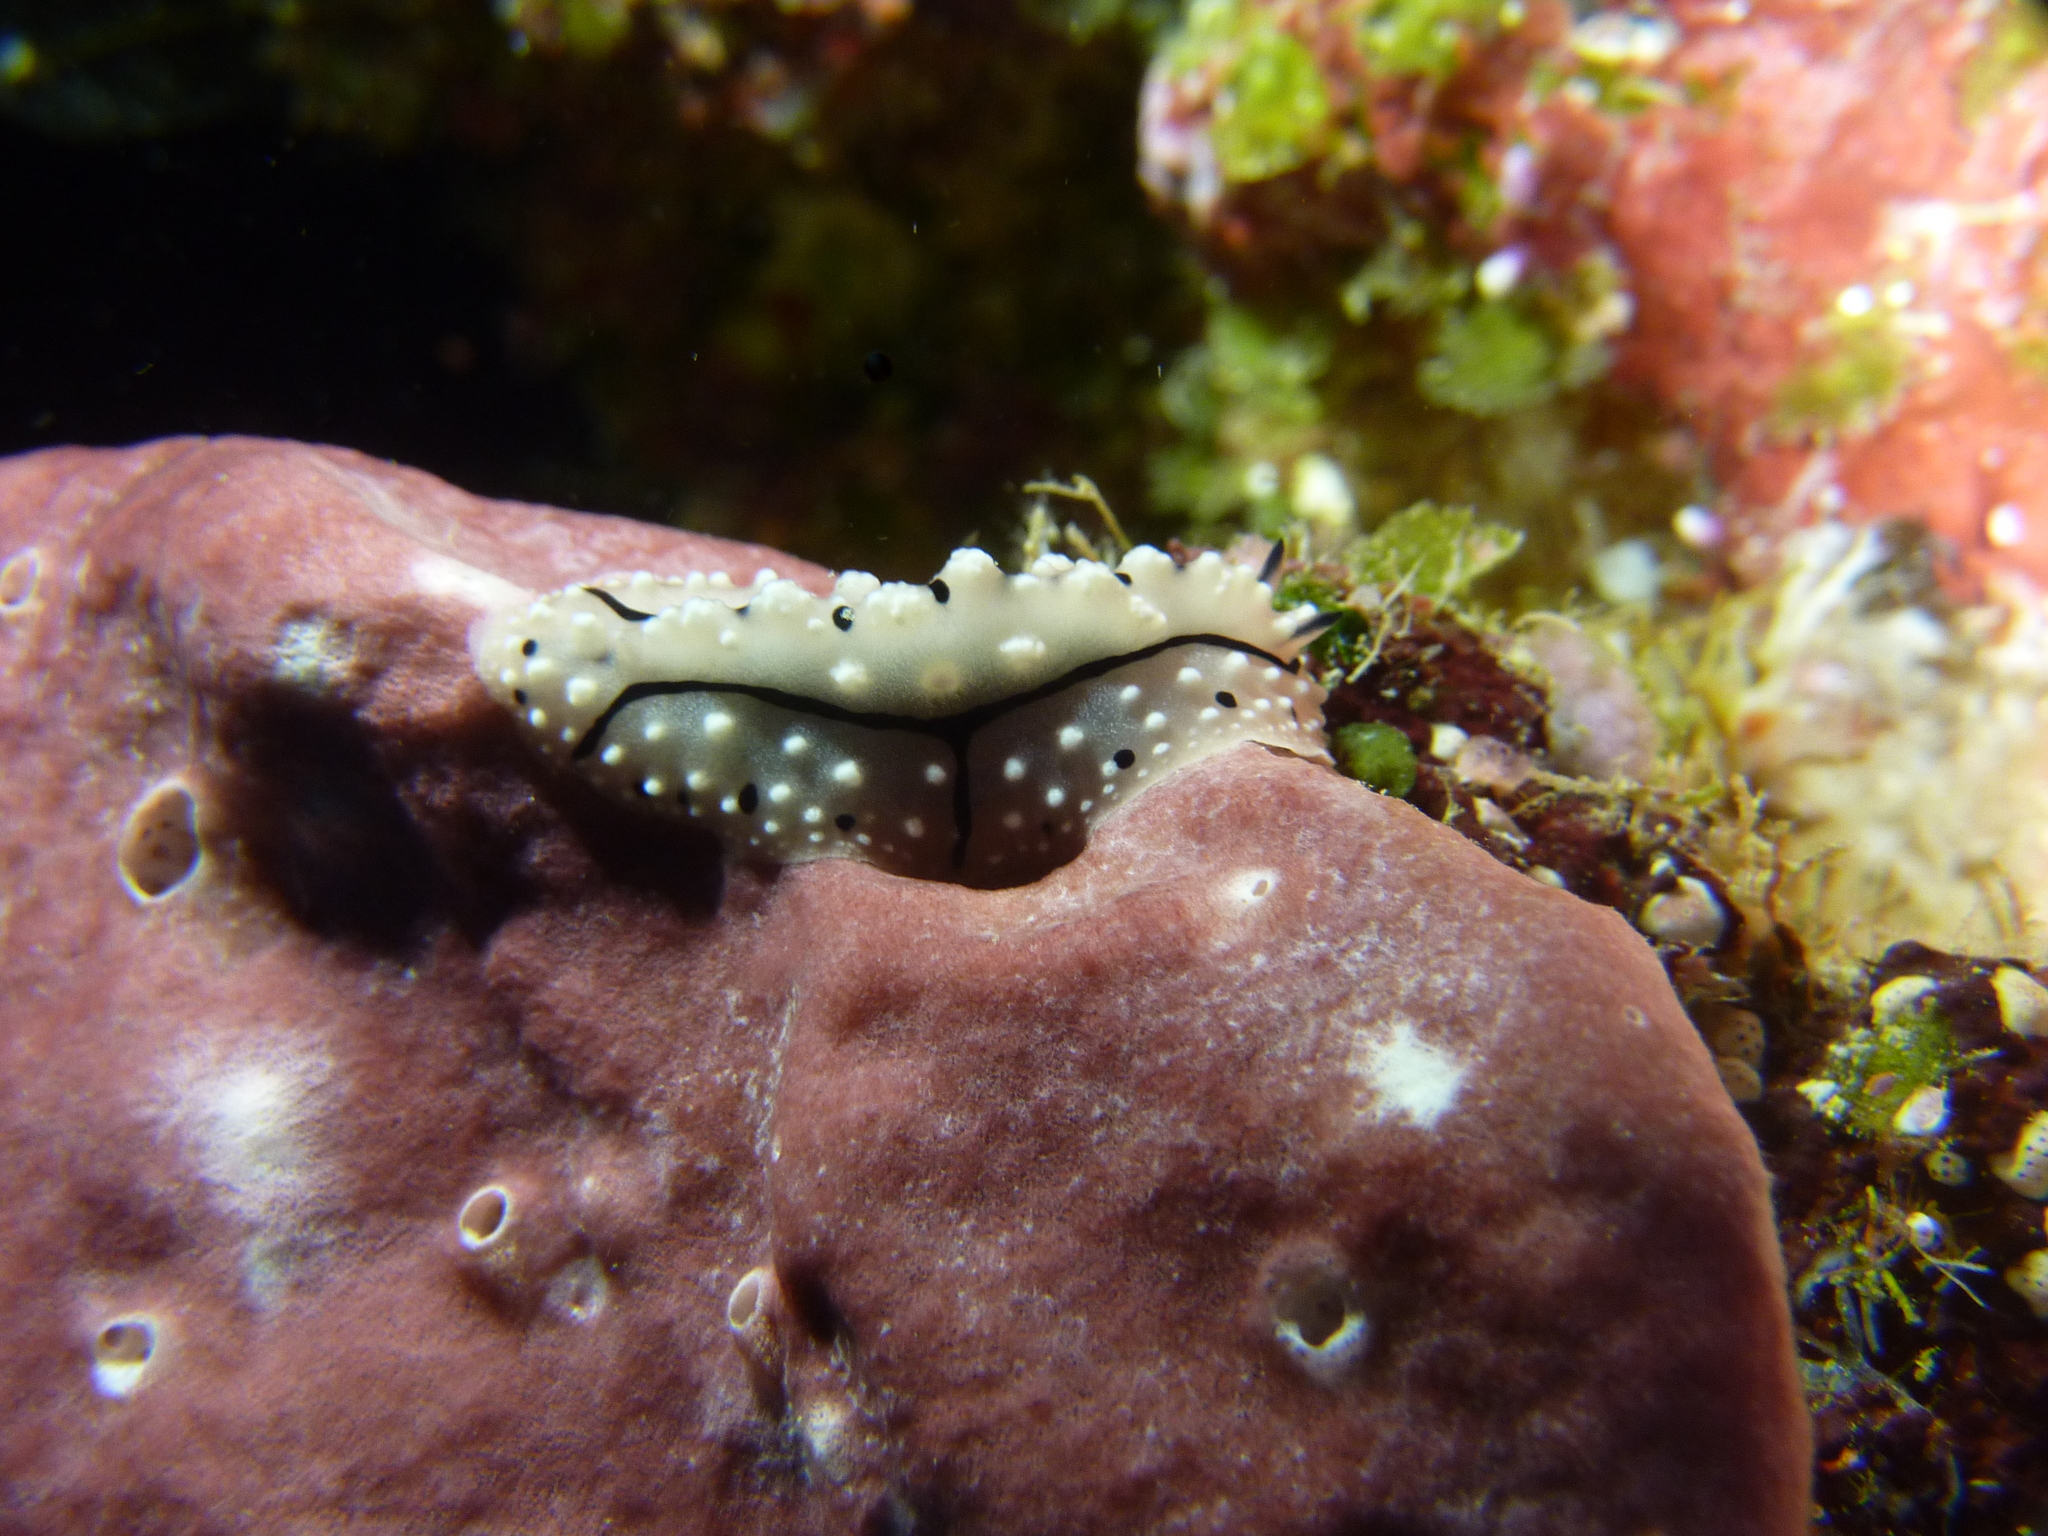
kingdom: Animalia
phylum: Mollusca
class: Gastropoda
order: Nudibranchia
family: Phyllidiidae
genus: Phyllidiopsis
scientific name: Phyllidiopsis krempfi
